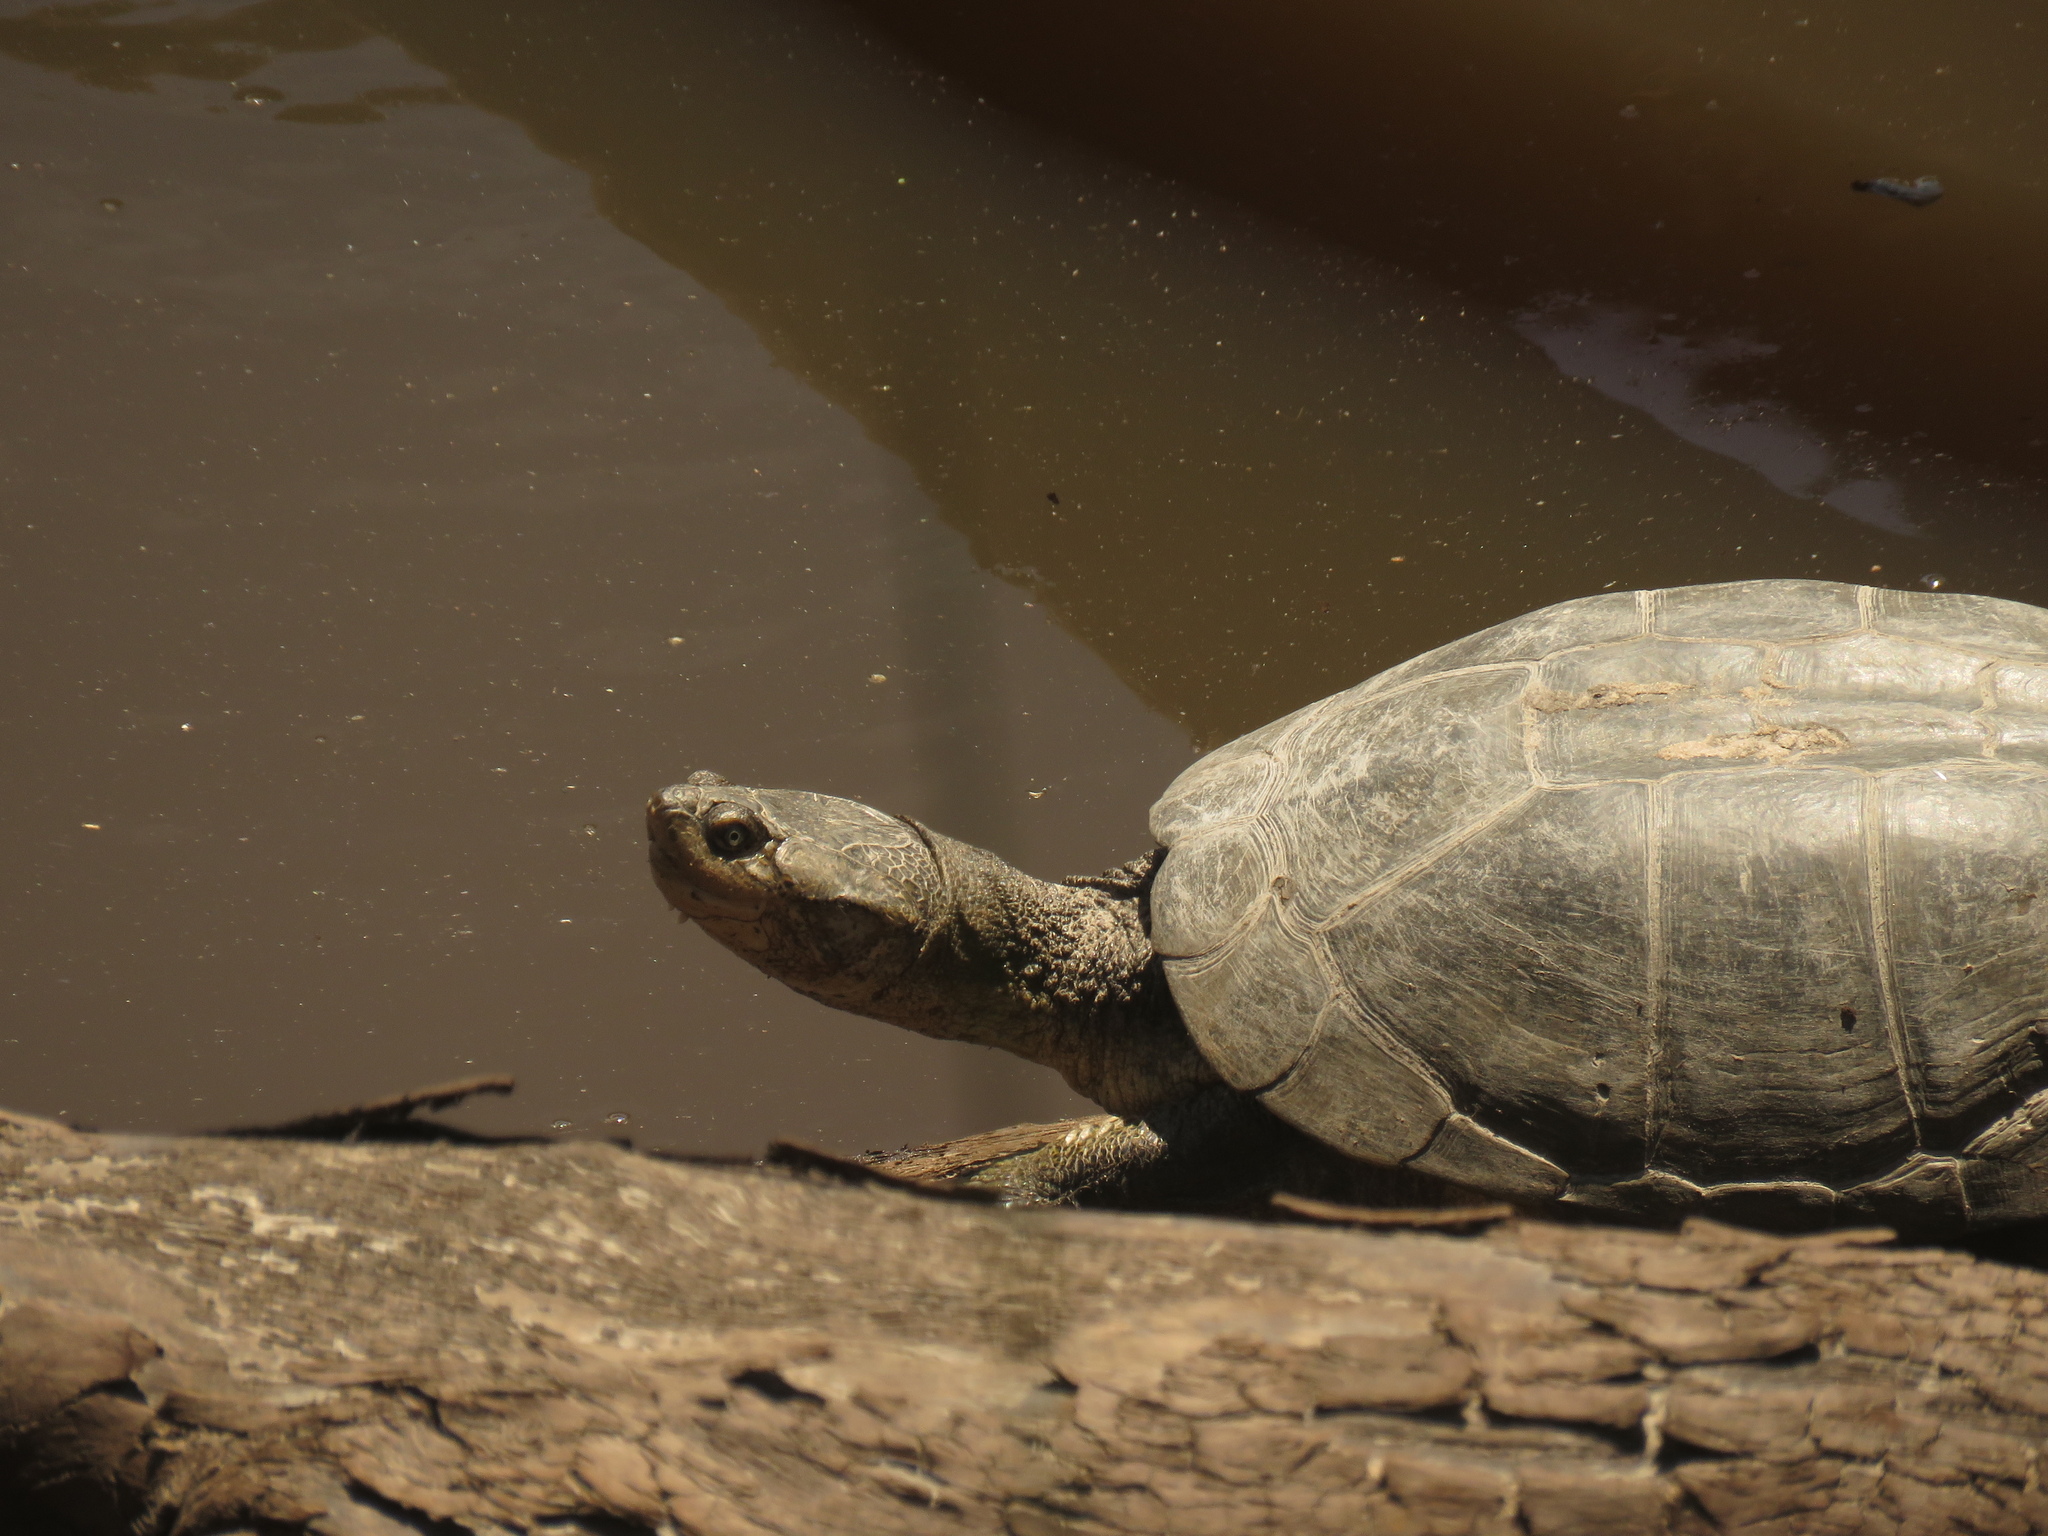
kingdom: Animalia
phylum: Chordata
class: Testudines
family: Pelomedusidae
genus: Pelomedusa
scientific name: Pelomedusa galeata
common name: South african helmeted terrapin
